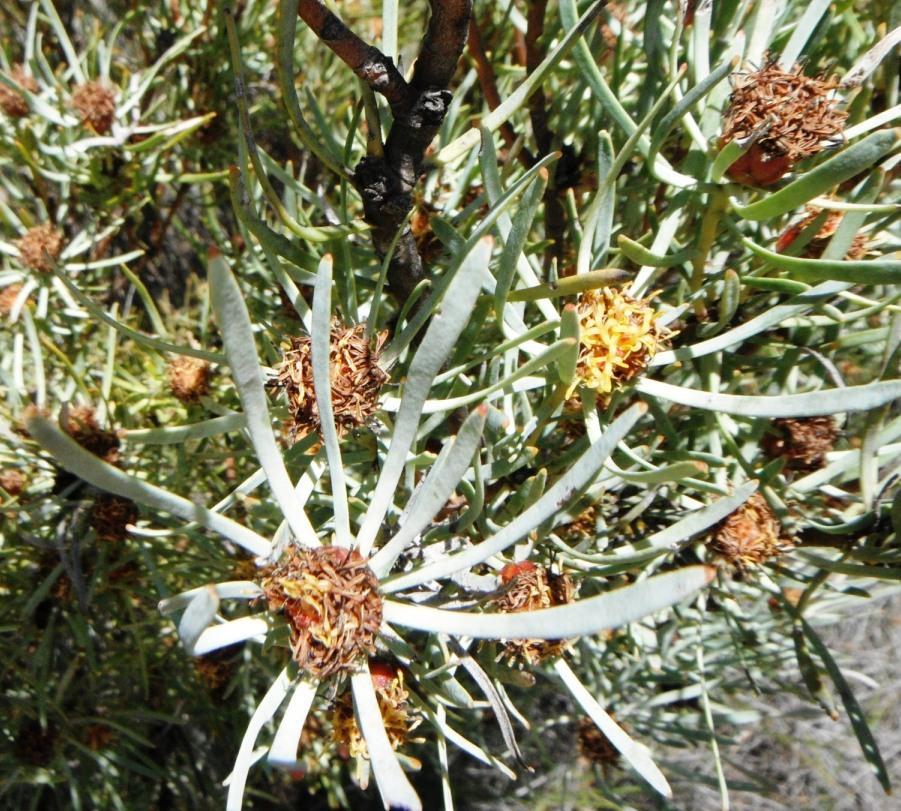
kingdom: Plantae
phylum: Tracheophyta
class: Magnoliopsida
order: Proteales
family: Proteaceae
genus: Leucadendron
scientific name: Leucadendron meyerianum
